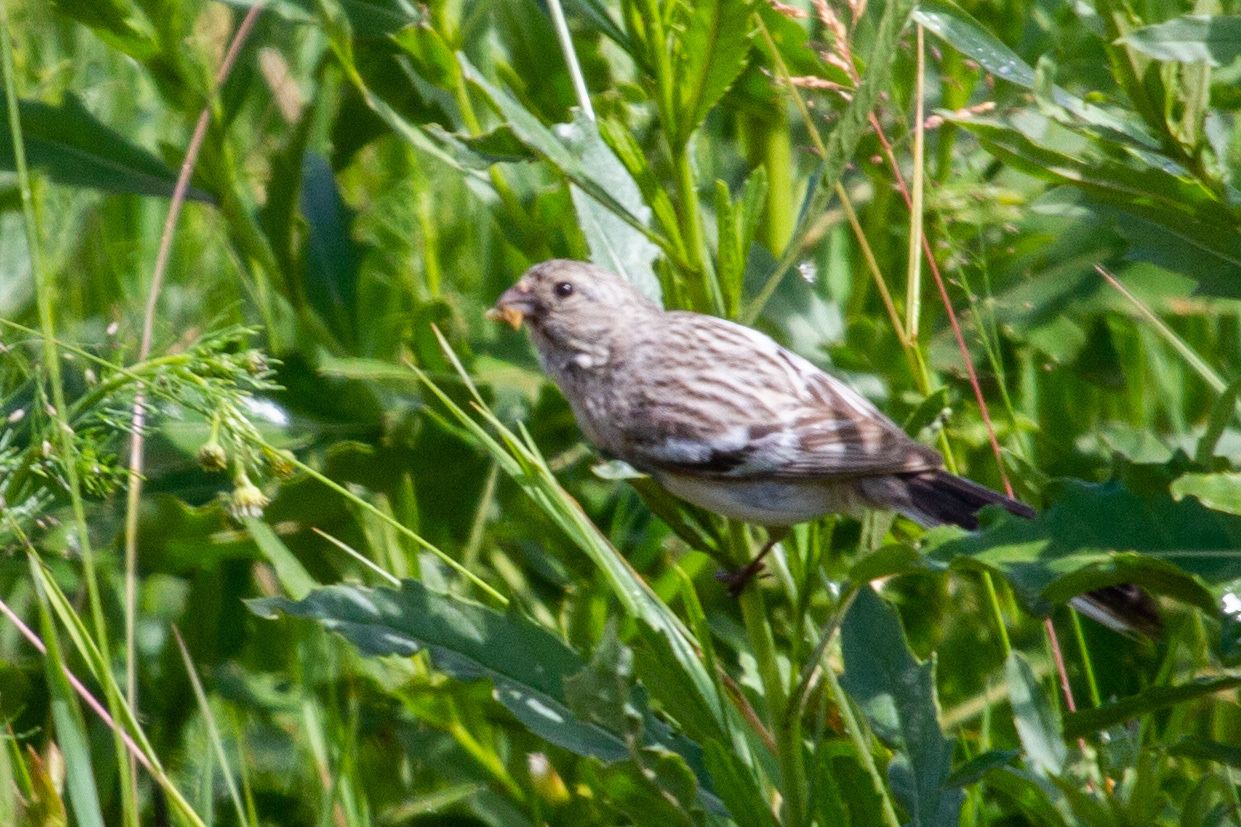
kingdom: Animalia
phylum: Chordata
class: Aves
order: Passeriformes
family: Fringillidae
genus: Carpodacus
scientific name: Carpodacus sibiricus
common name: Long-tailed rosefinch
